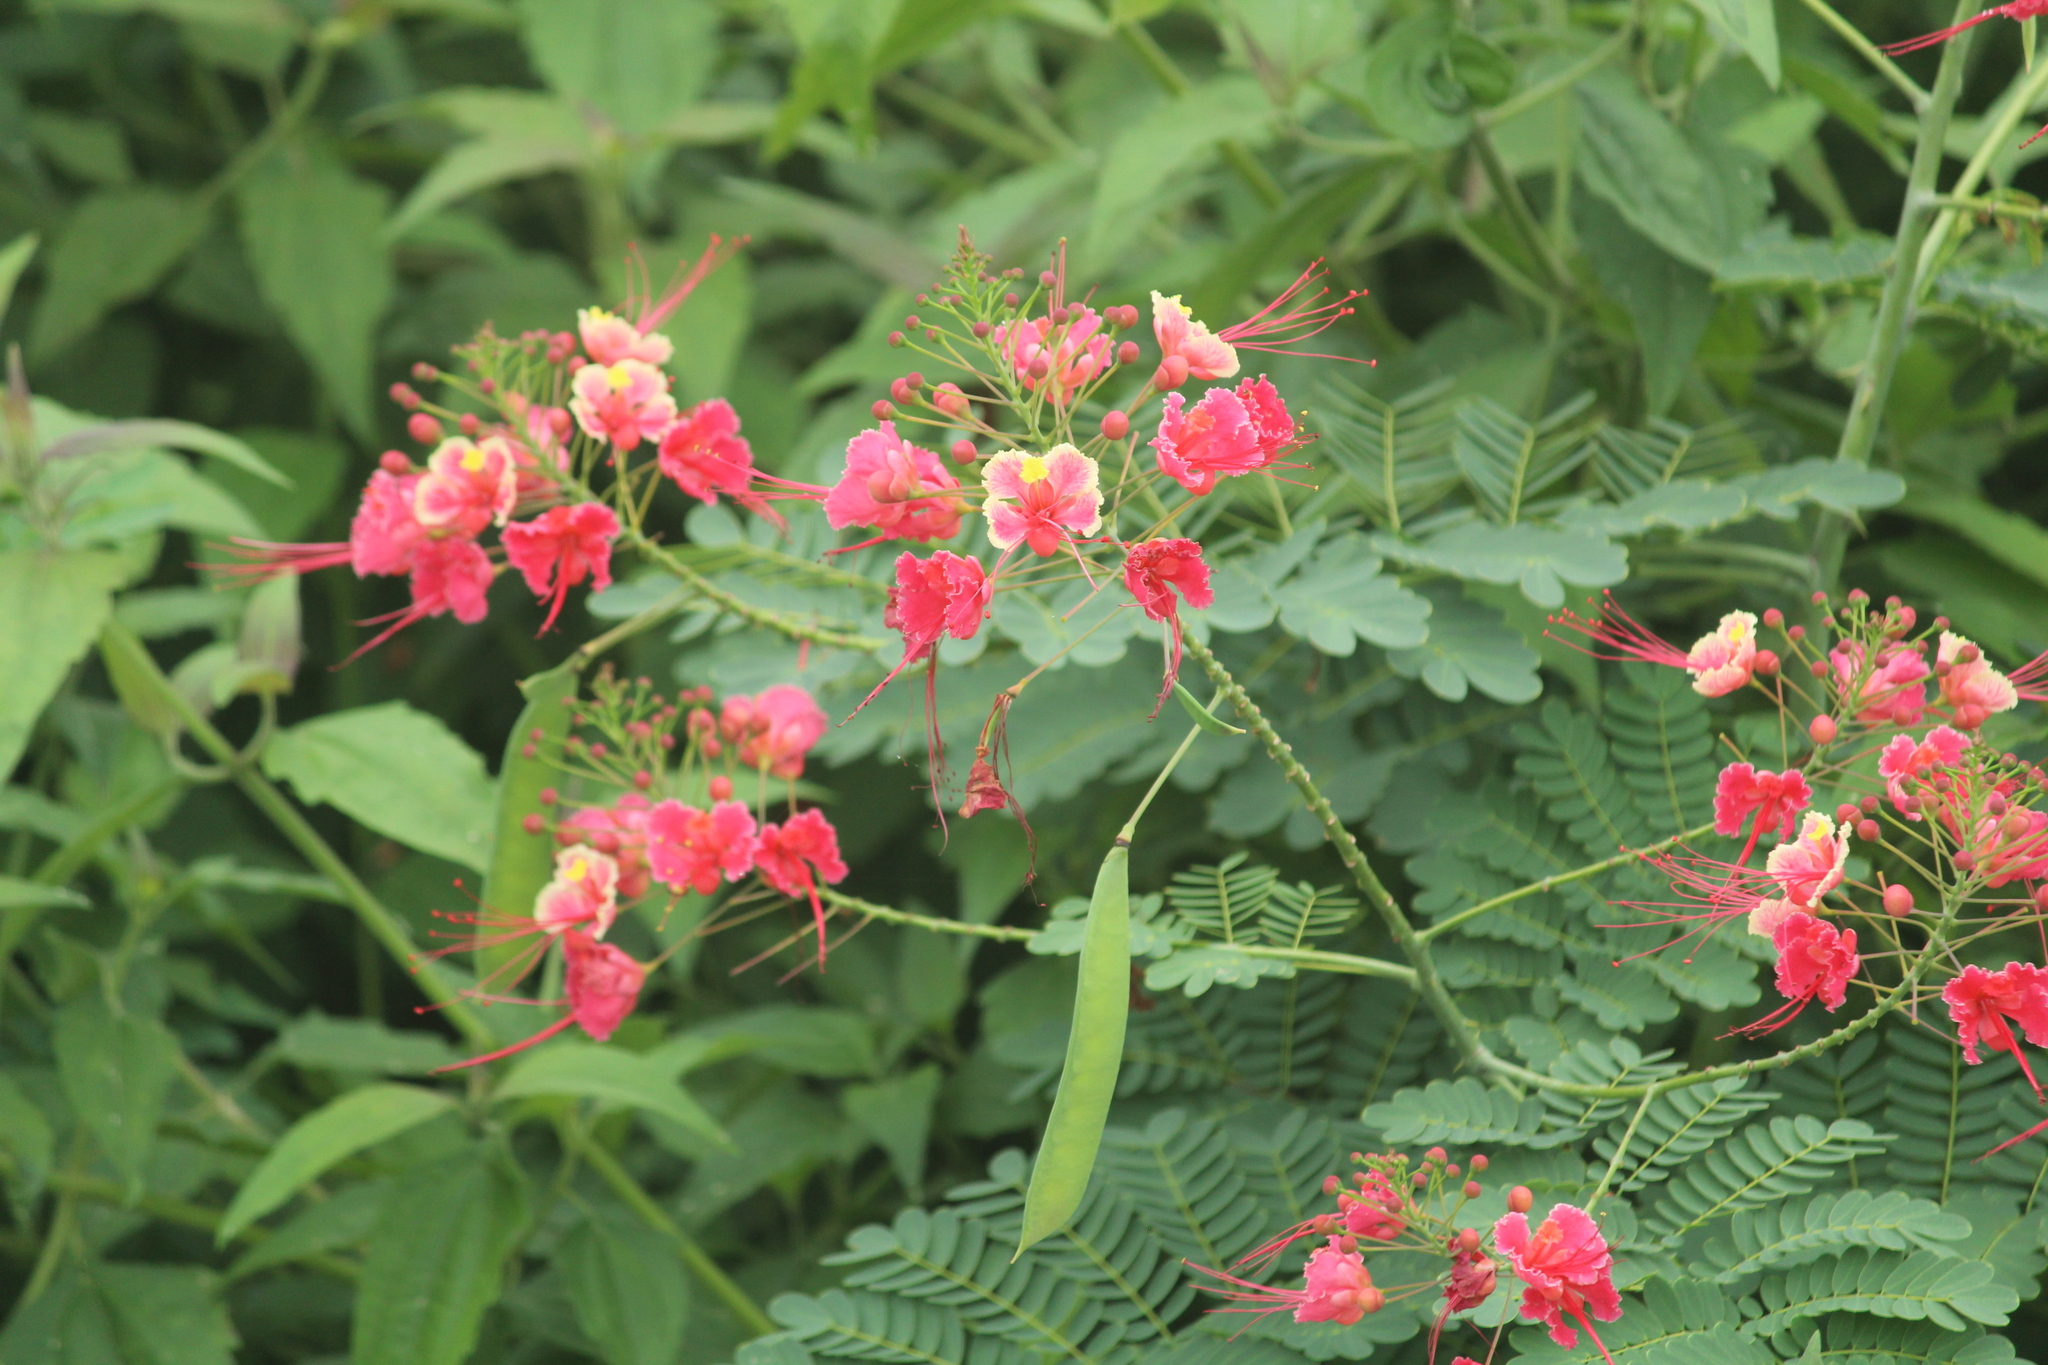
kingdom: Plantae
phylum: Tracheophyta
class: Magnoliopsida
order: Fabales
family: Fabaceae
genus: Caesalpinia
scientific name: Caesalpinia pulcherrima
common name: Pride-of-barbados
